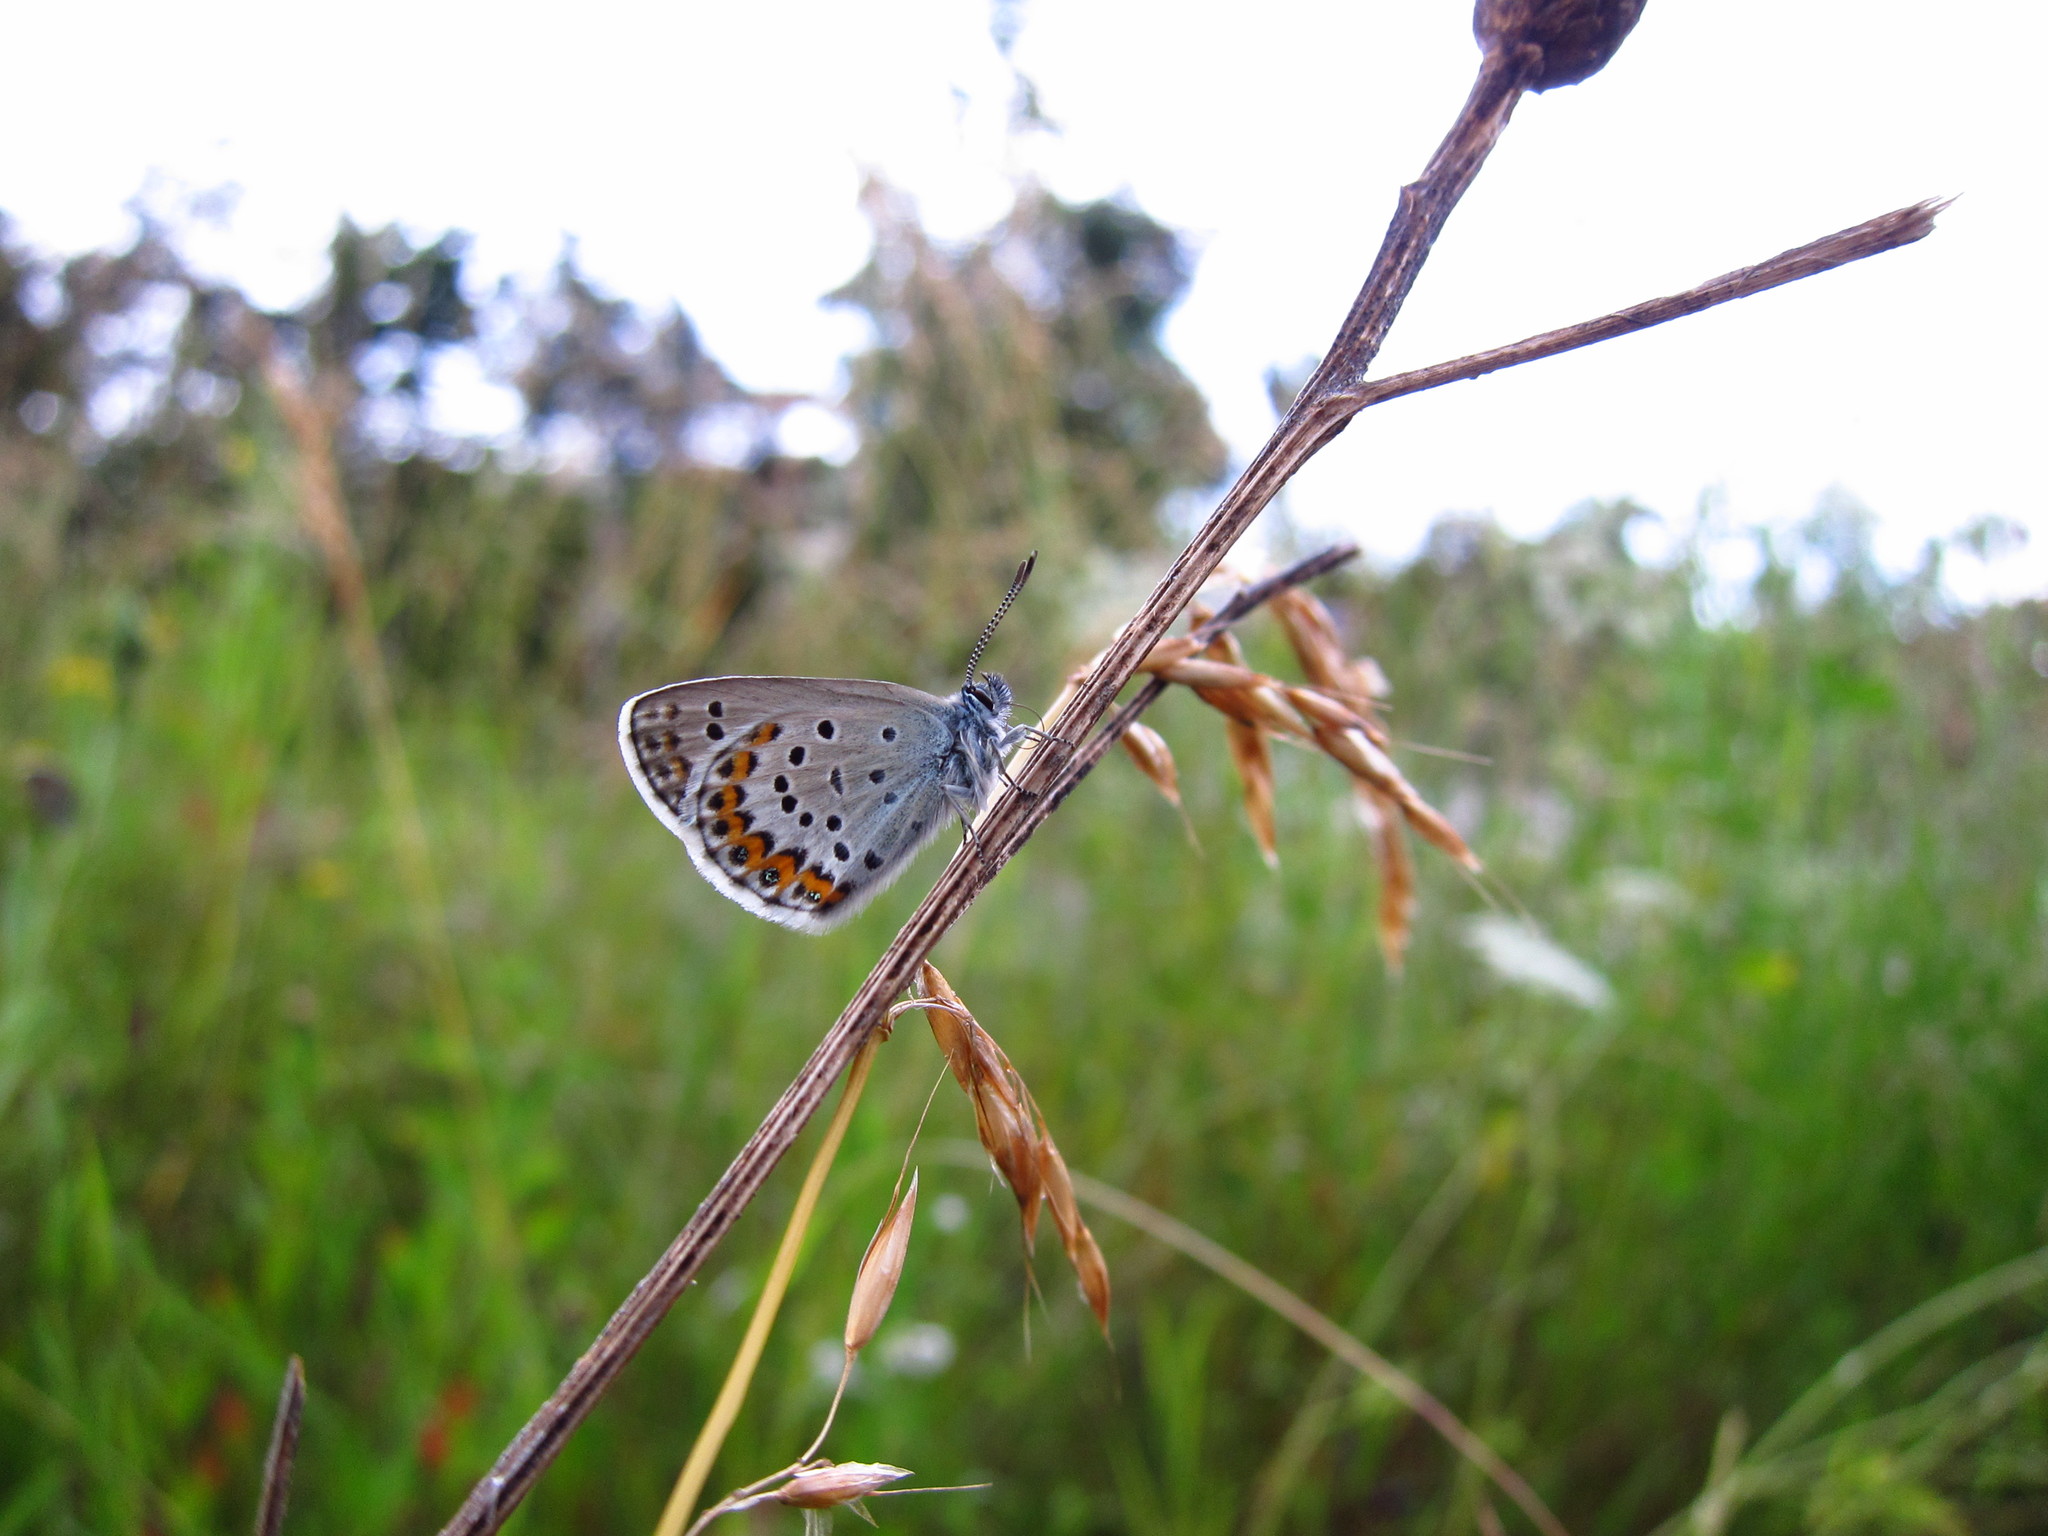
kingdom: Animalia
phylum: Arthropoda
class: Insecta
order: Lepidoptera
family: Lycaenidae
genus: Lycaeides
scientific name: Lycaeides idas
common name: Northern blue
